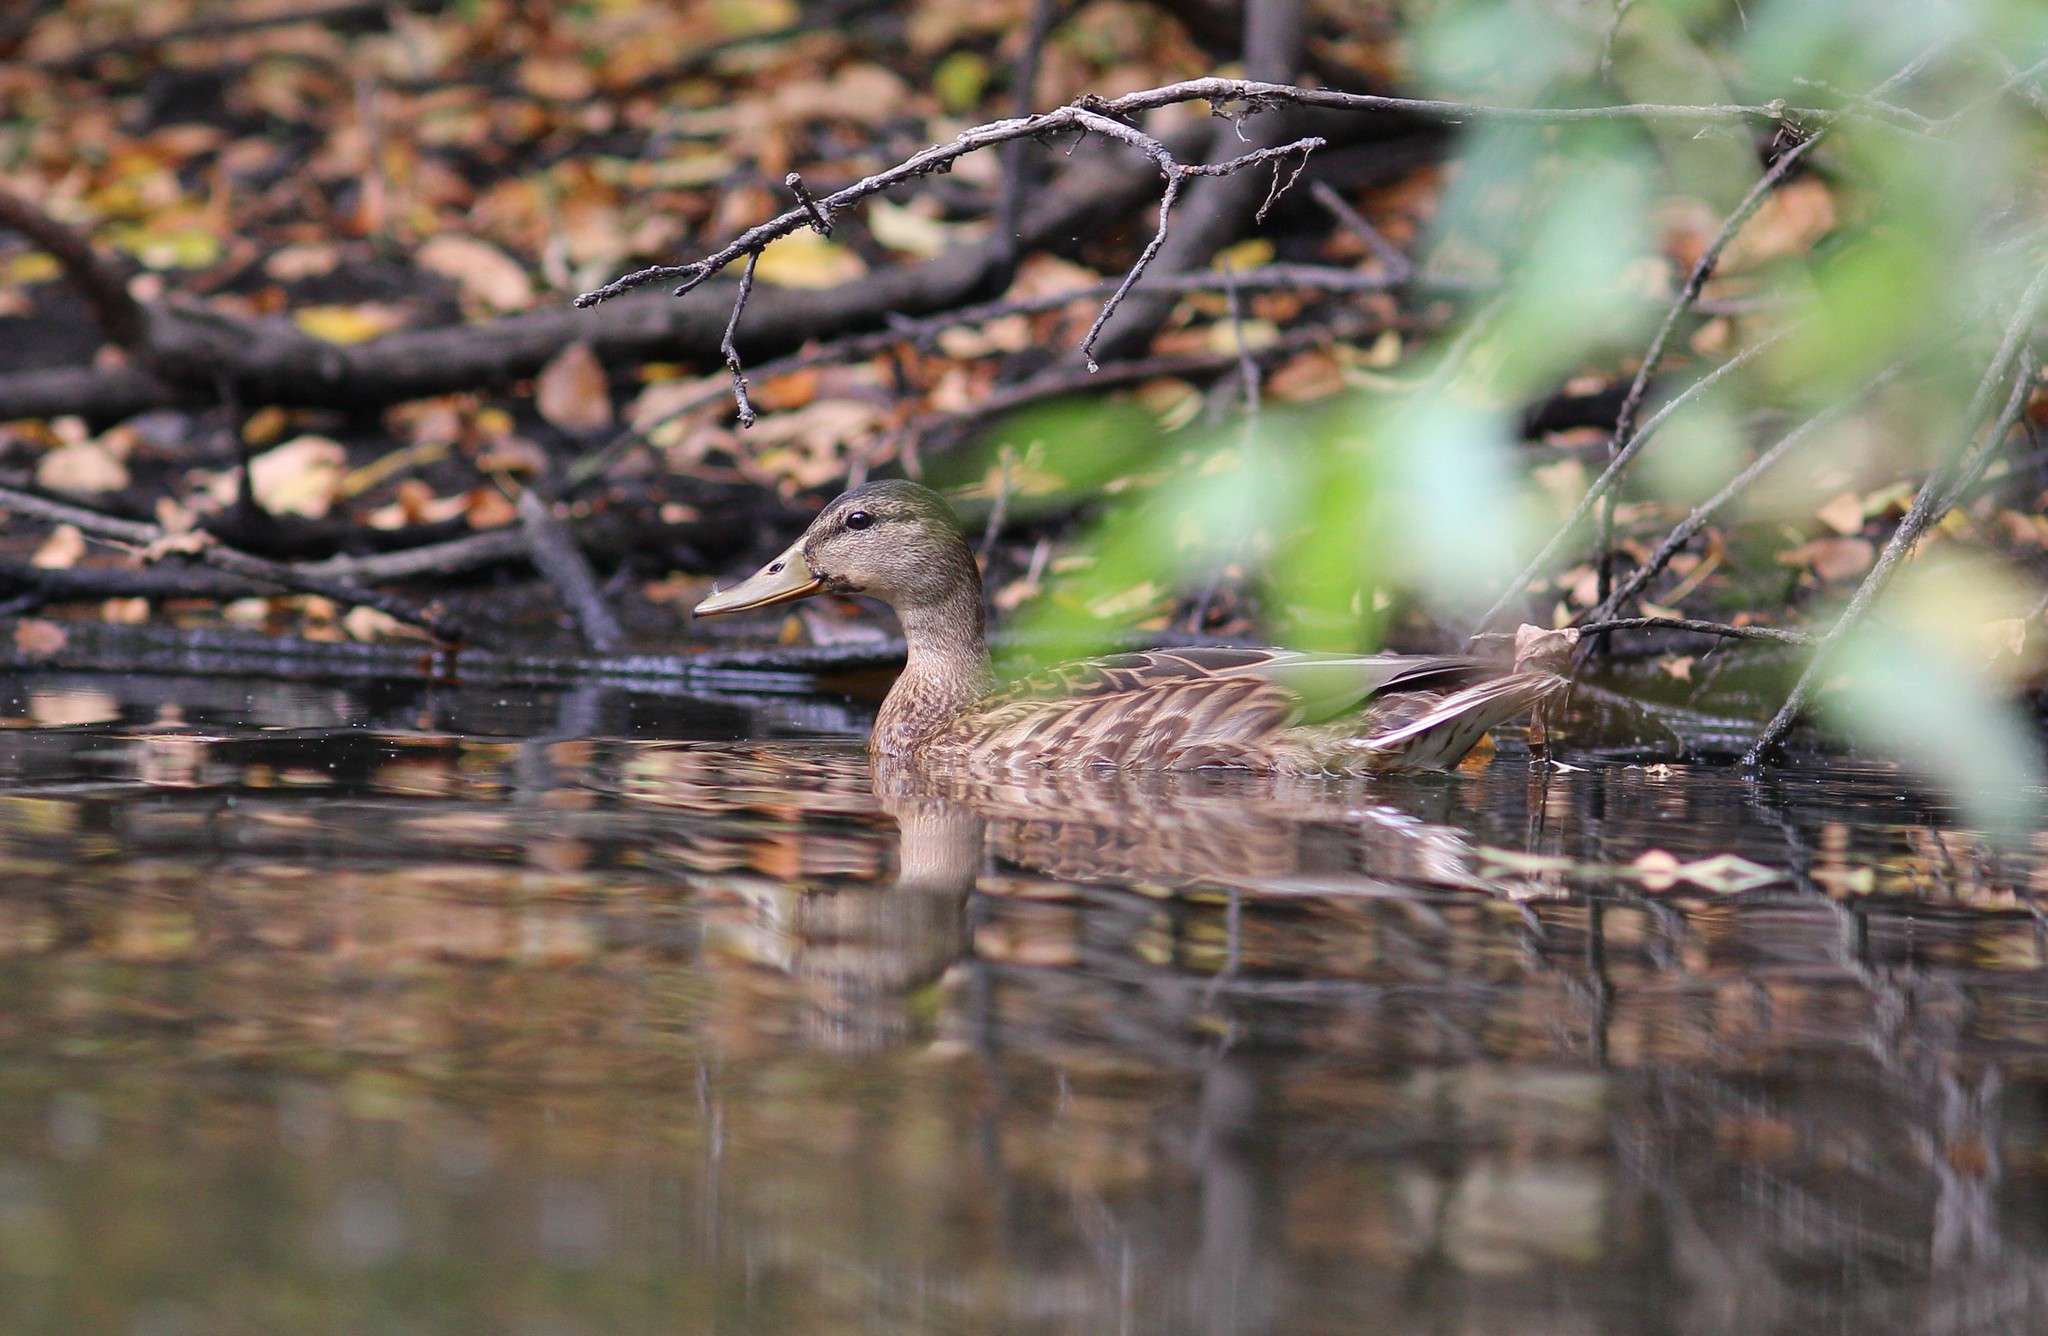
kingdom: Animalia
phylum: Chordata
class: Aves
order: Anseriformes
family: Anatidae
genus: Anas
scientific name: Anas platyrhynchos
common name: Mallard
